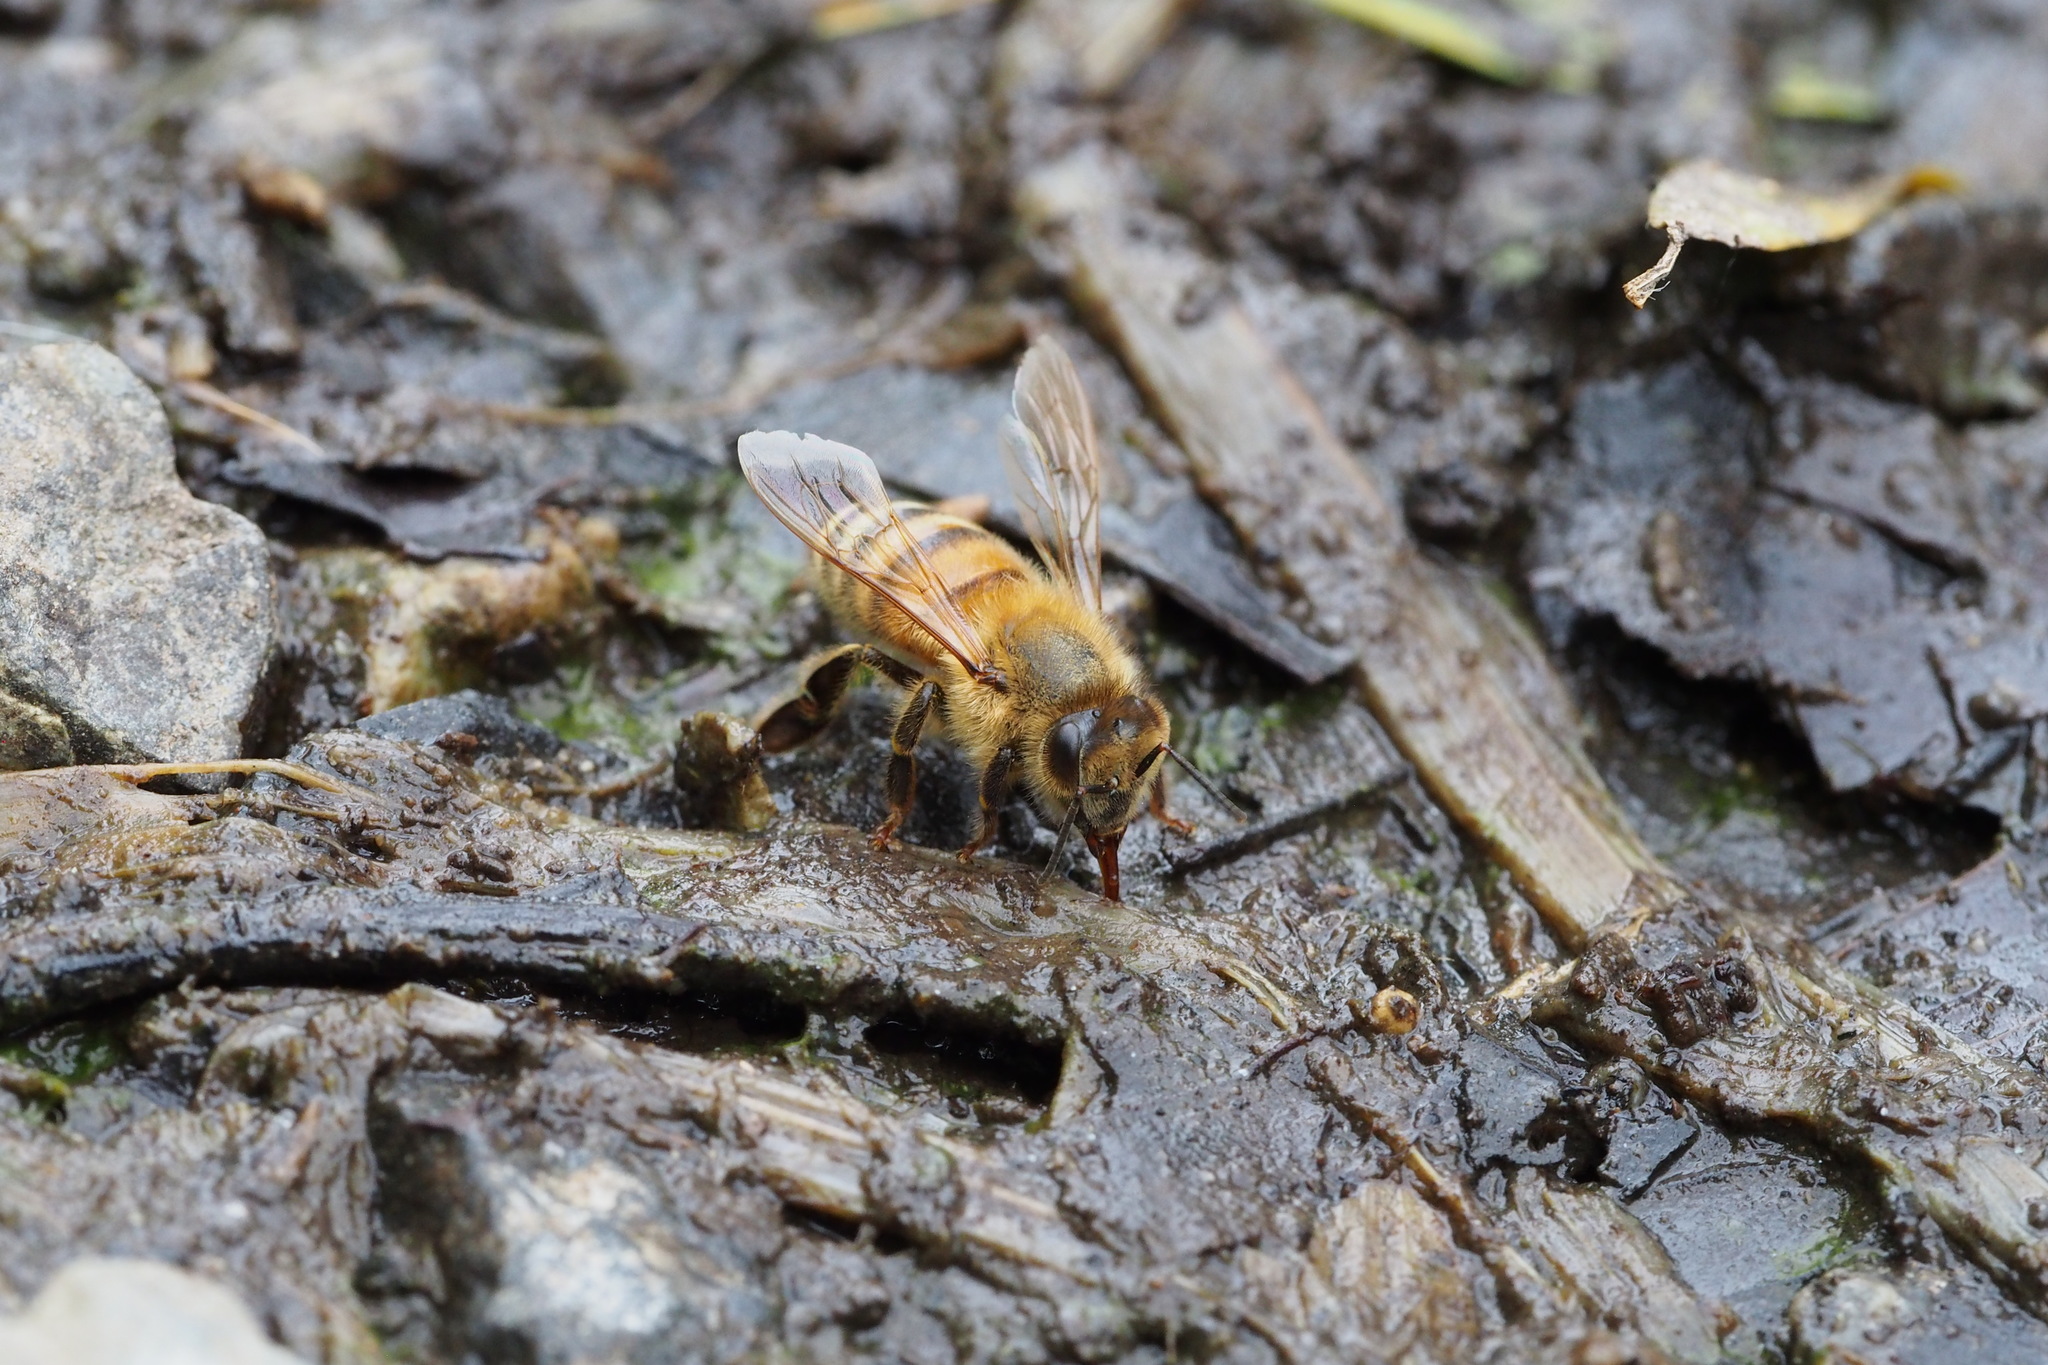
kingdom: Animalia
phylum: Arthropoda
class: Insecta
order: Hymenoptera
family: Apidae
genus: Apis
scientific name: Apis mellifera
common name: Honey bee
